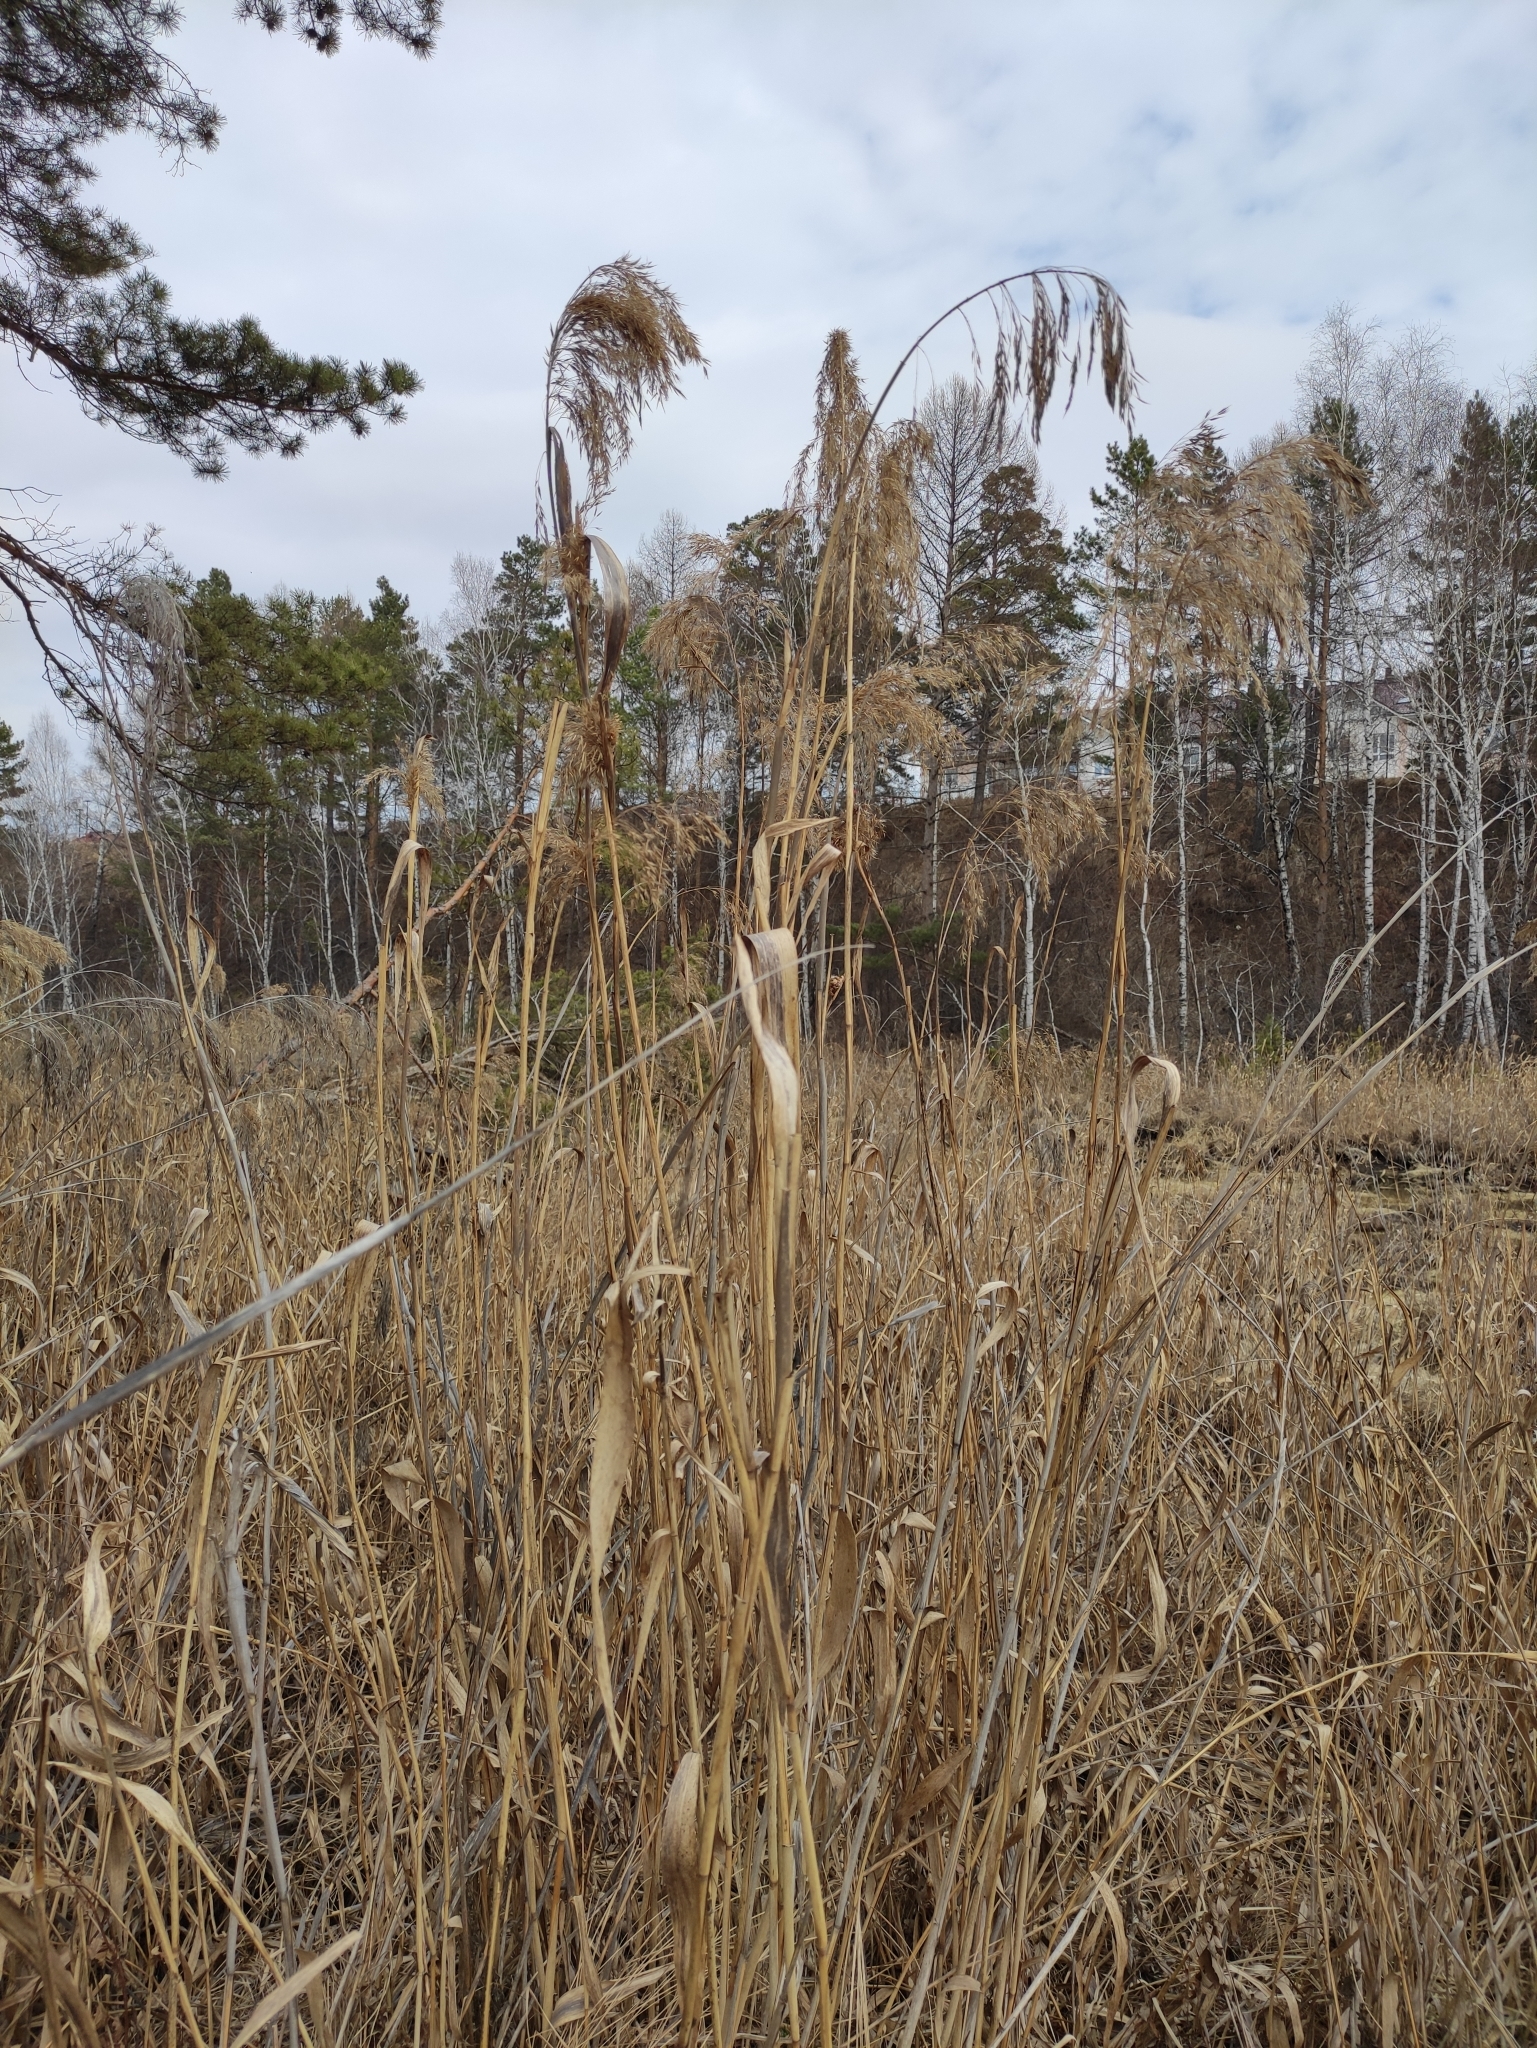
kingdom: Plantae
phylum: Tracheophyta
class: Liliopsida
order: Poales
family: Poaceae
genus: Phragmites
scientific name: Phragmites australis
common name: Common reed
